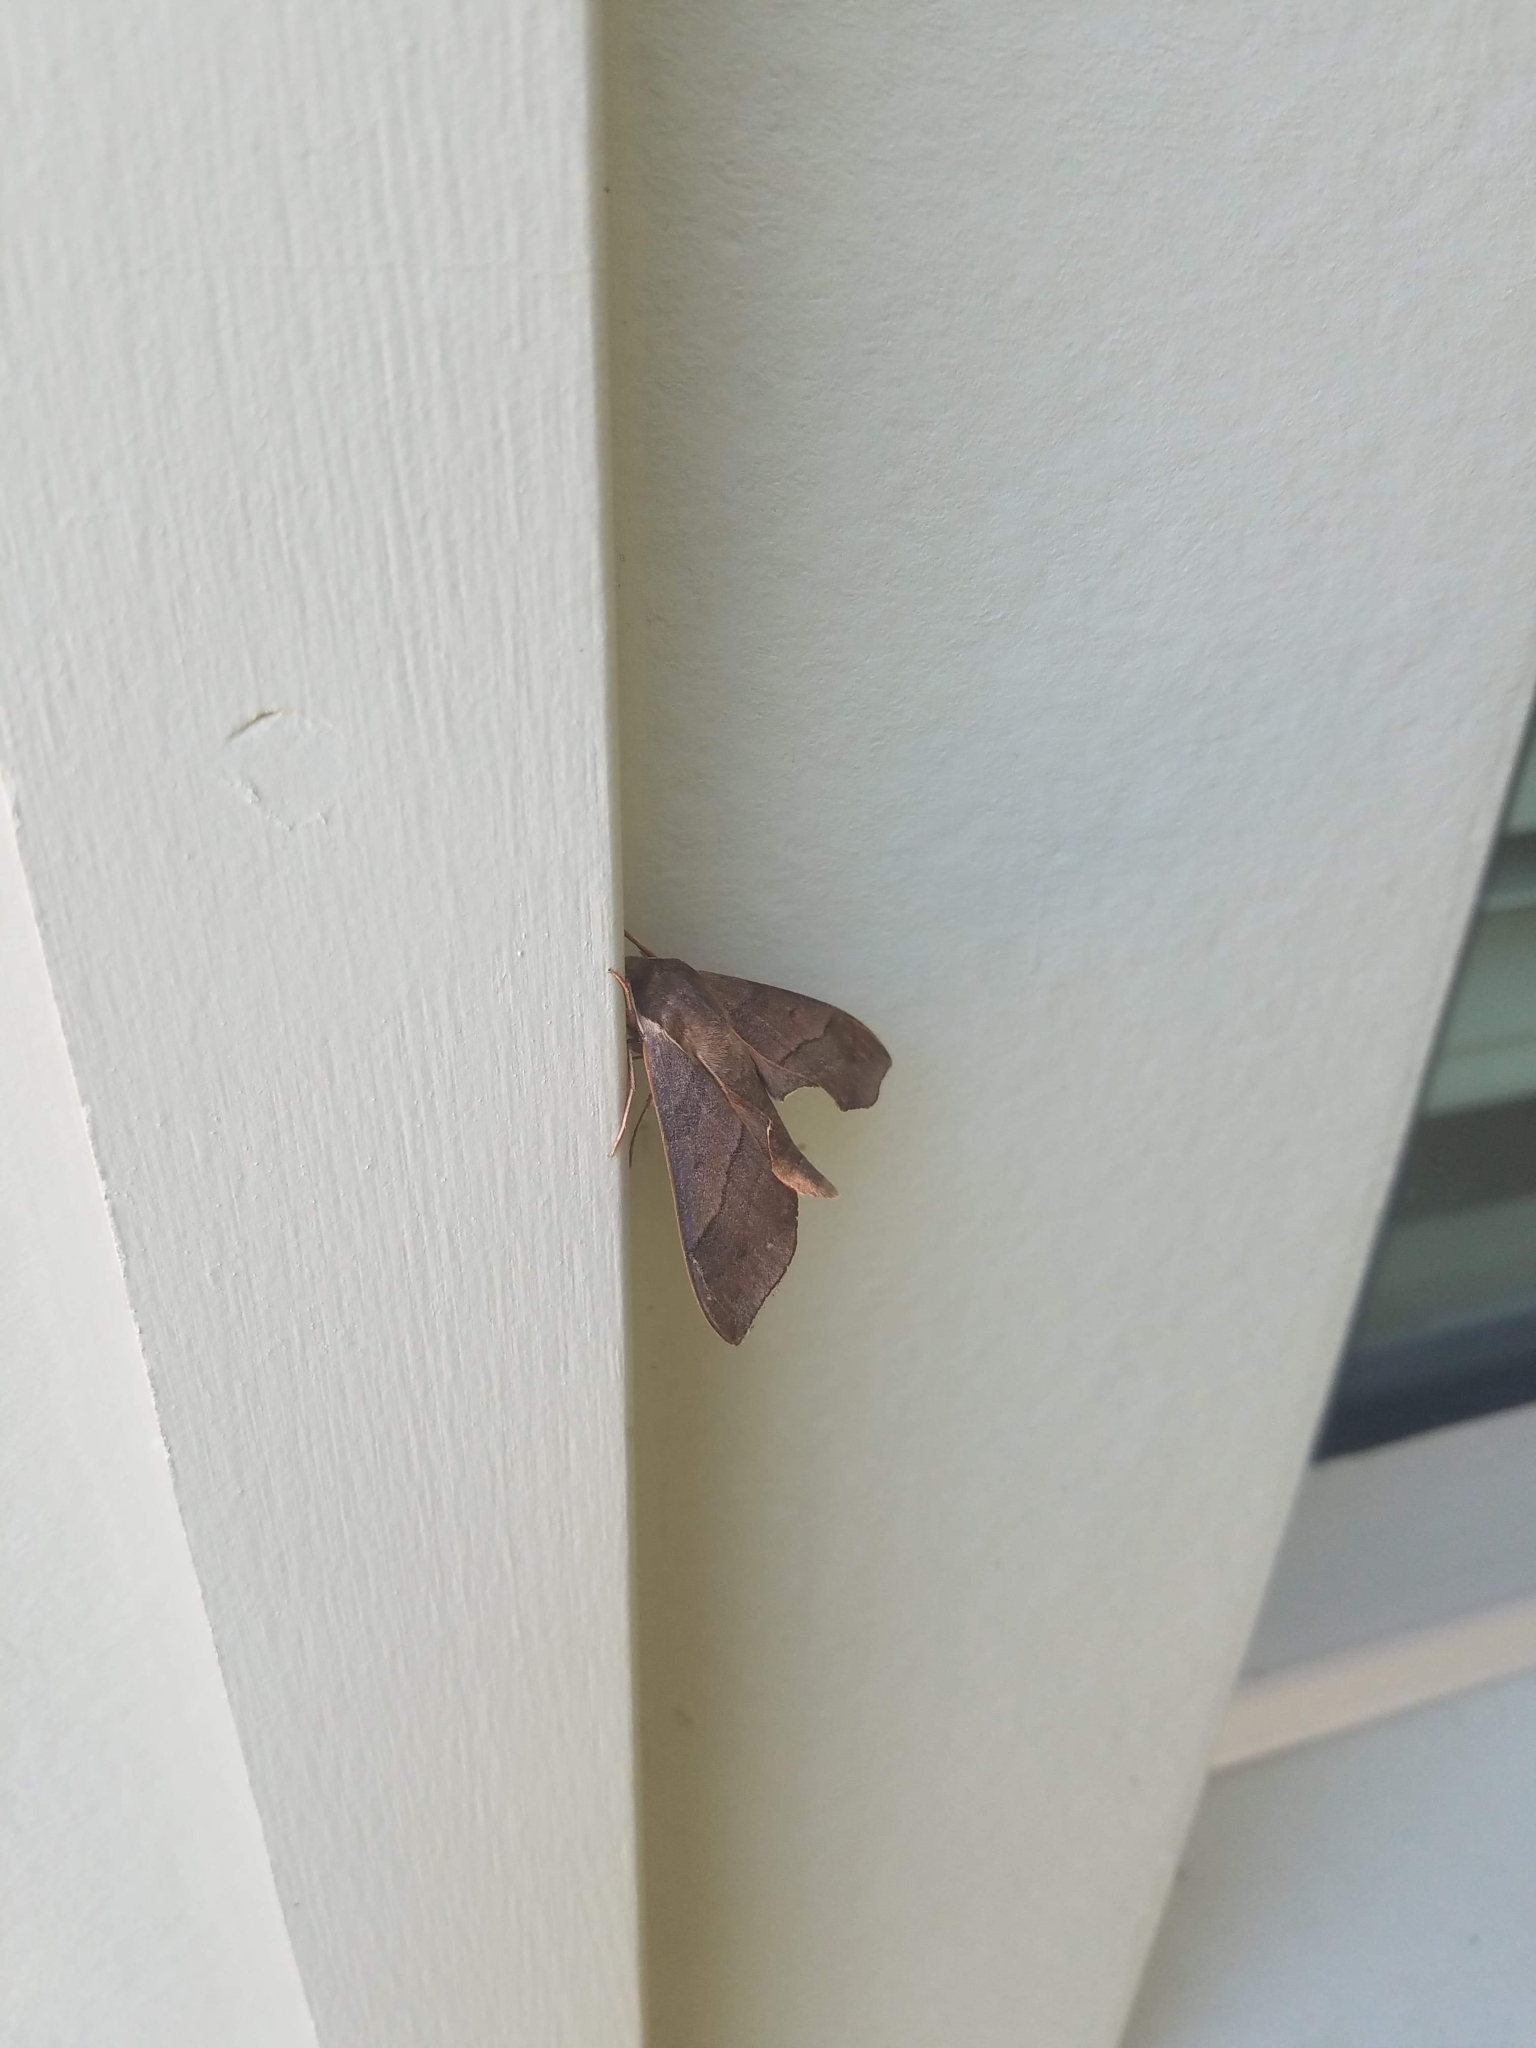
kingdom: Animalia
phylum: Arthropoda
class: Insecta
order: Lepidoptera
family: Sphingidae
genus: Darapsa
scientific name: Darapsa myron
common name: Hog sphinx
